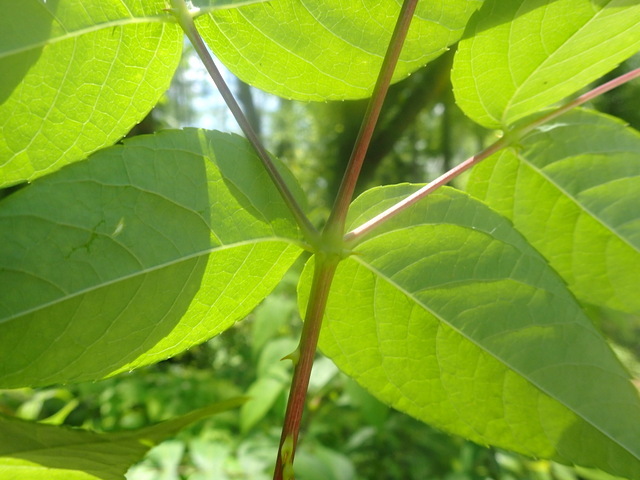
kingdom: Plantae
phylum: Tracheophyta
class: Magnoliopsida
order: Apiales
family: Araliaceae
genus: Aralia
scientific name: Aralia spinosa
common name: Hercules'-club
